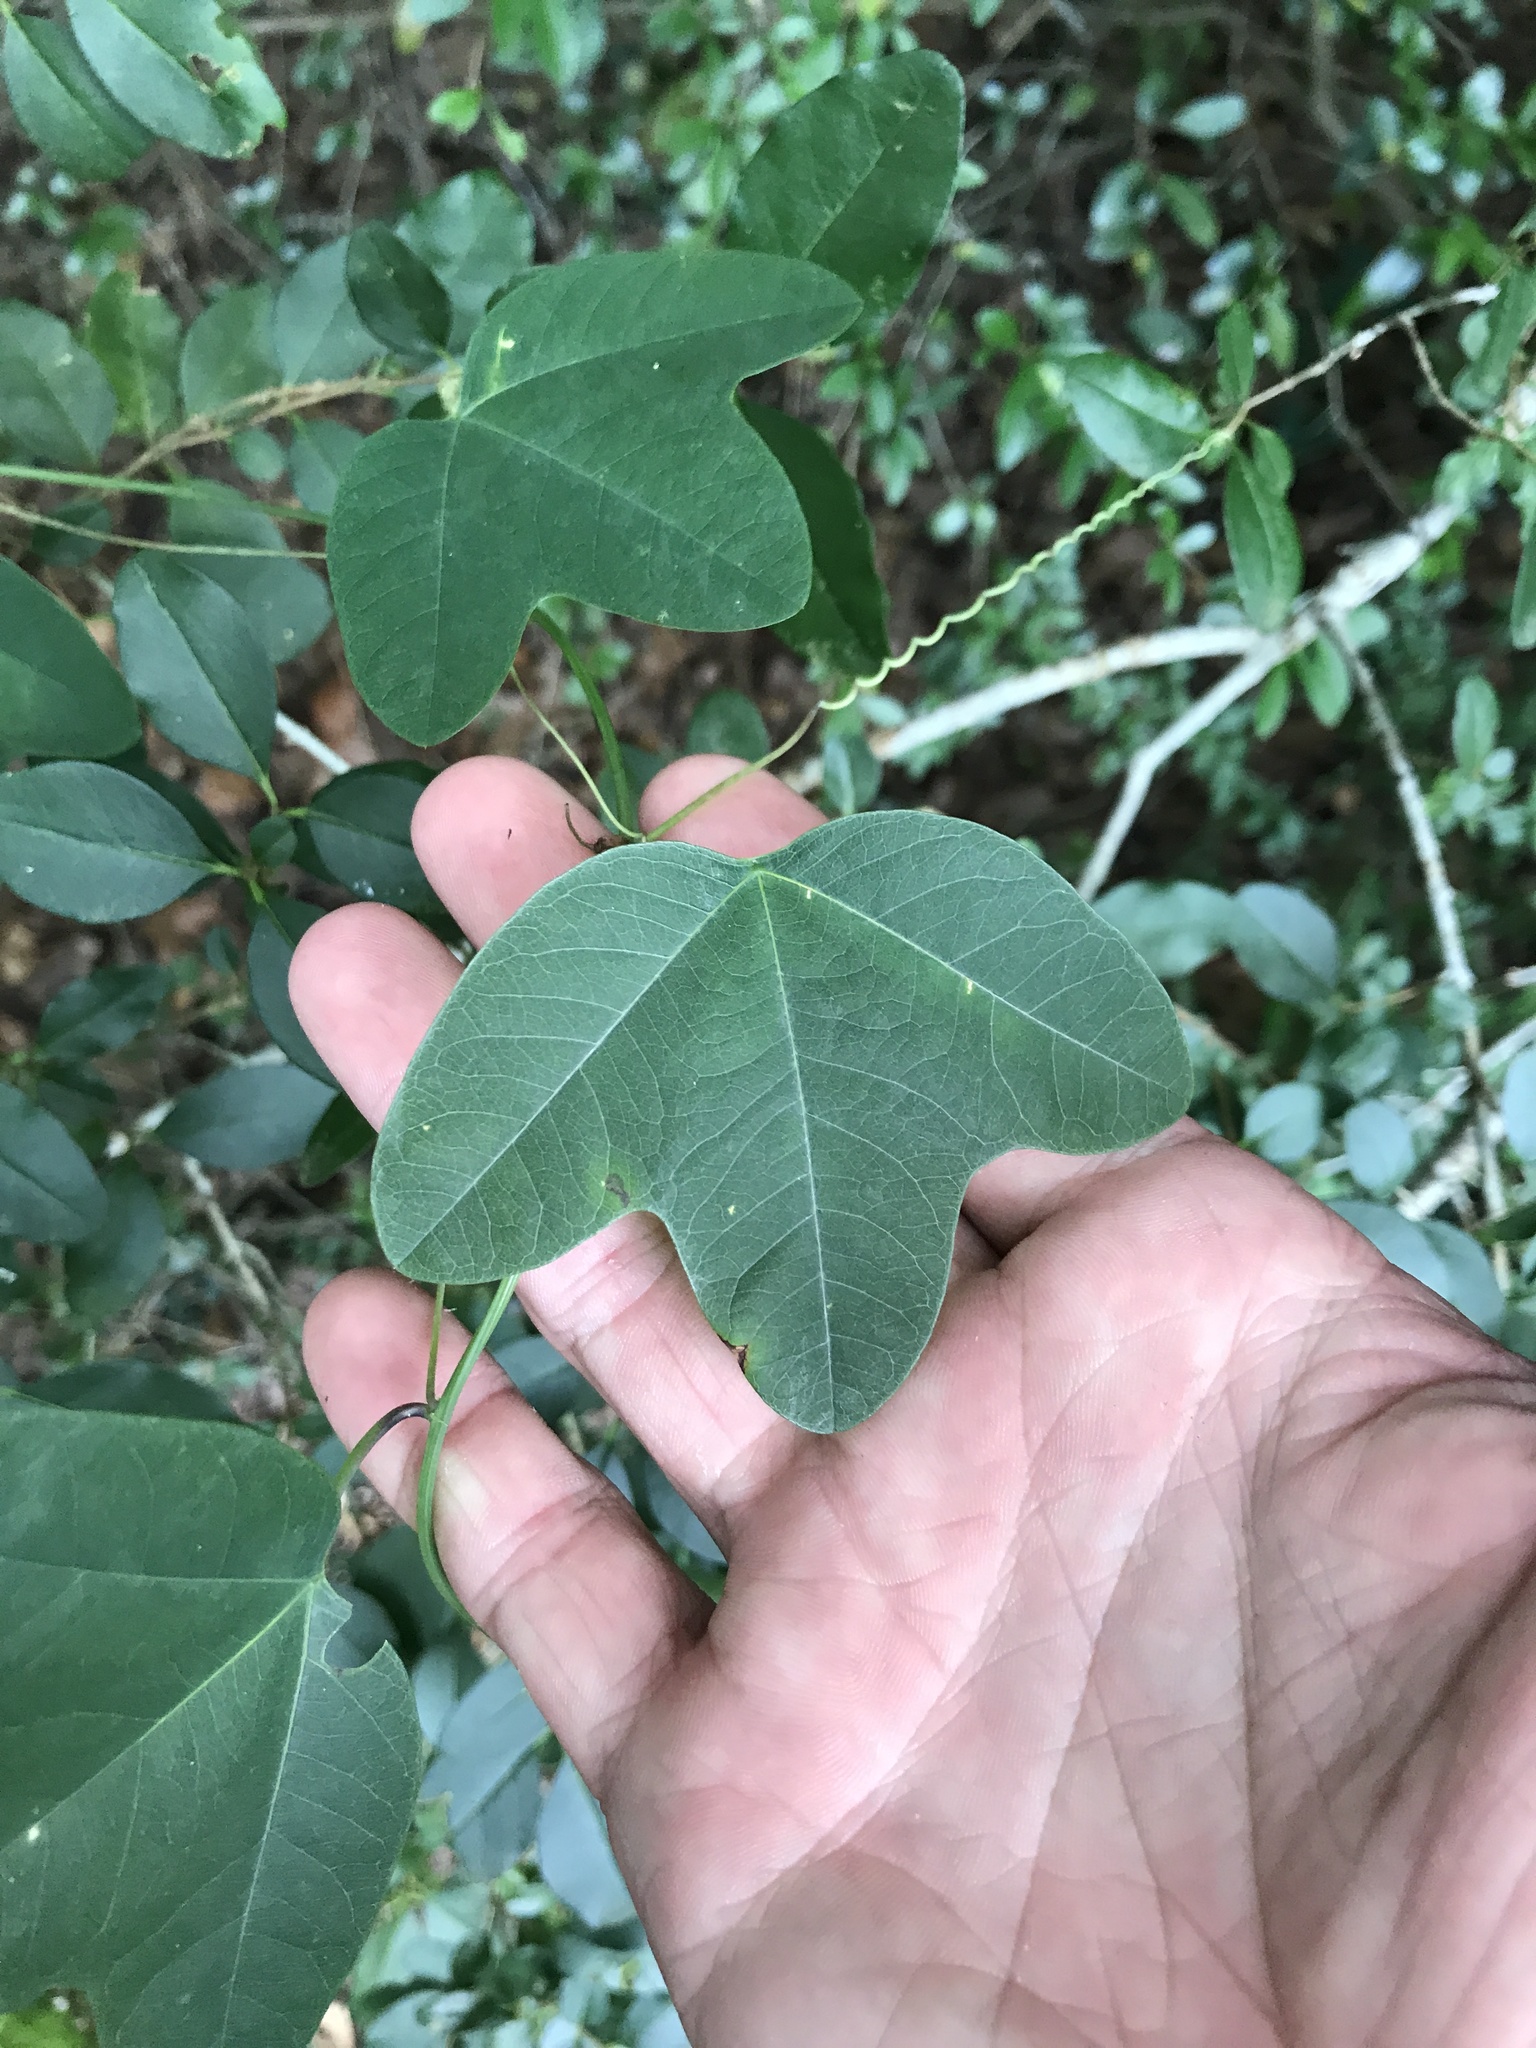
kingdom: Plantae
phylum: Tracheophyta
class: Magnoliopsida
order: Malpighiales
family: Passifloraceae
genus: Passiflora
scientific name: Passiflora lutea
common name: Yellow passionflower
